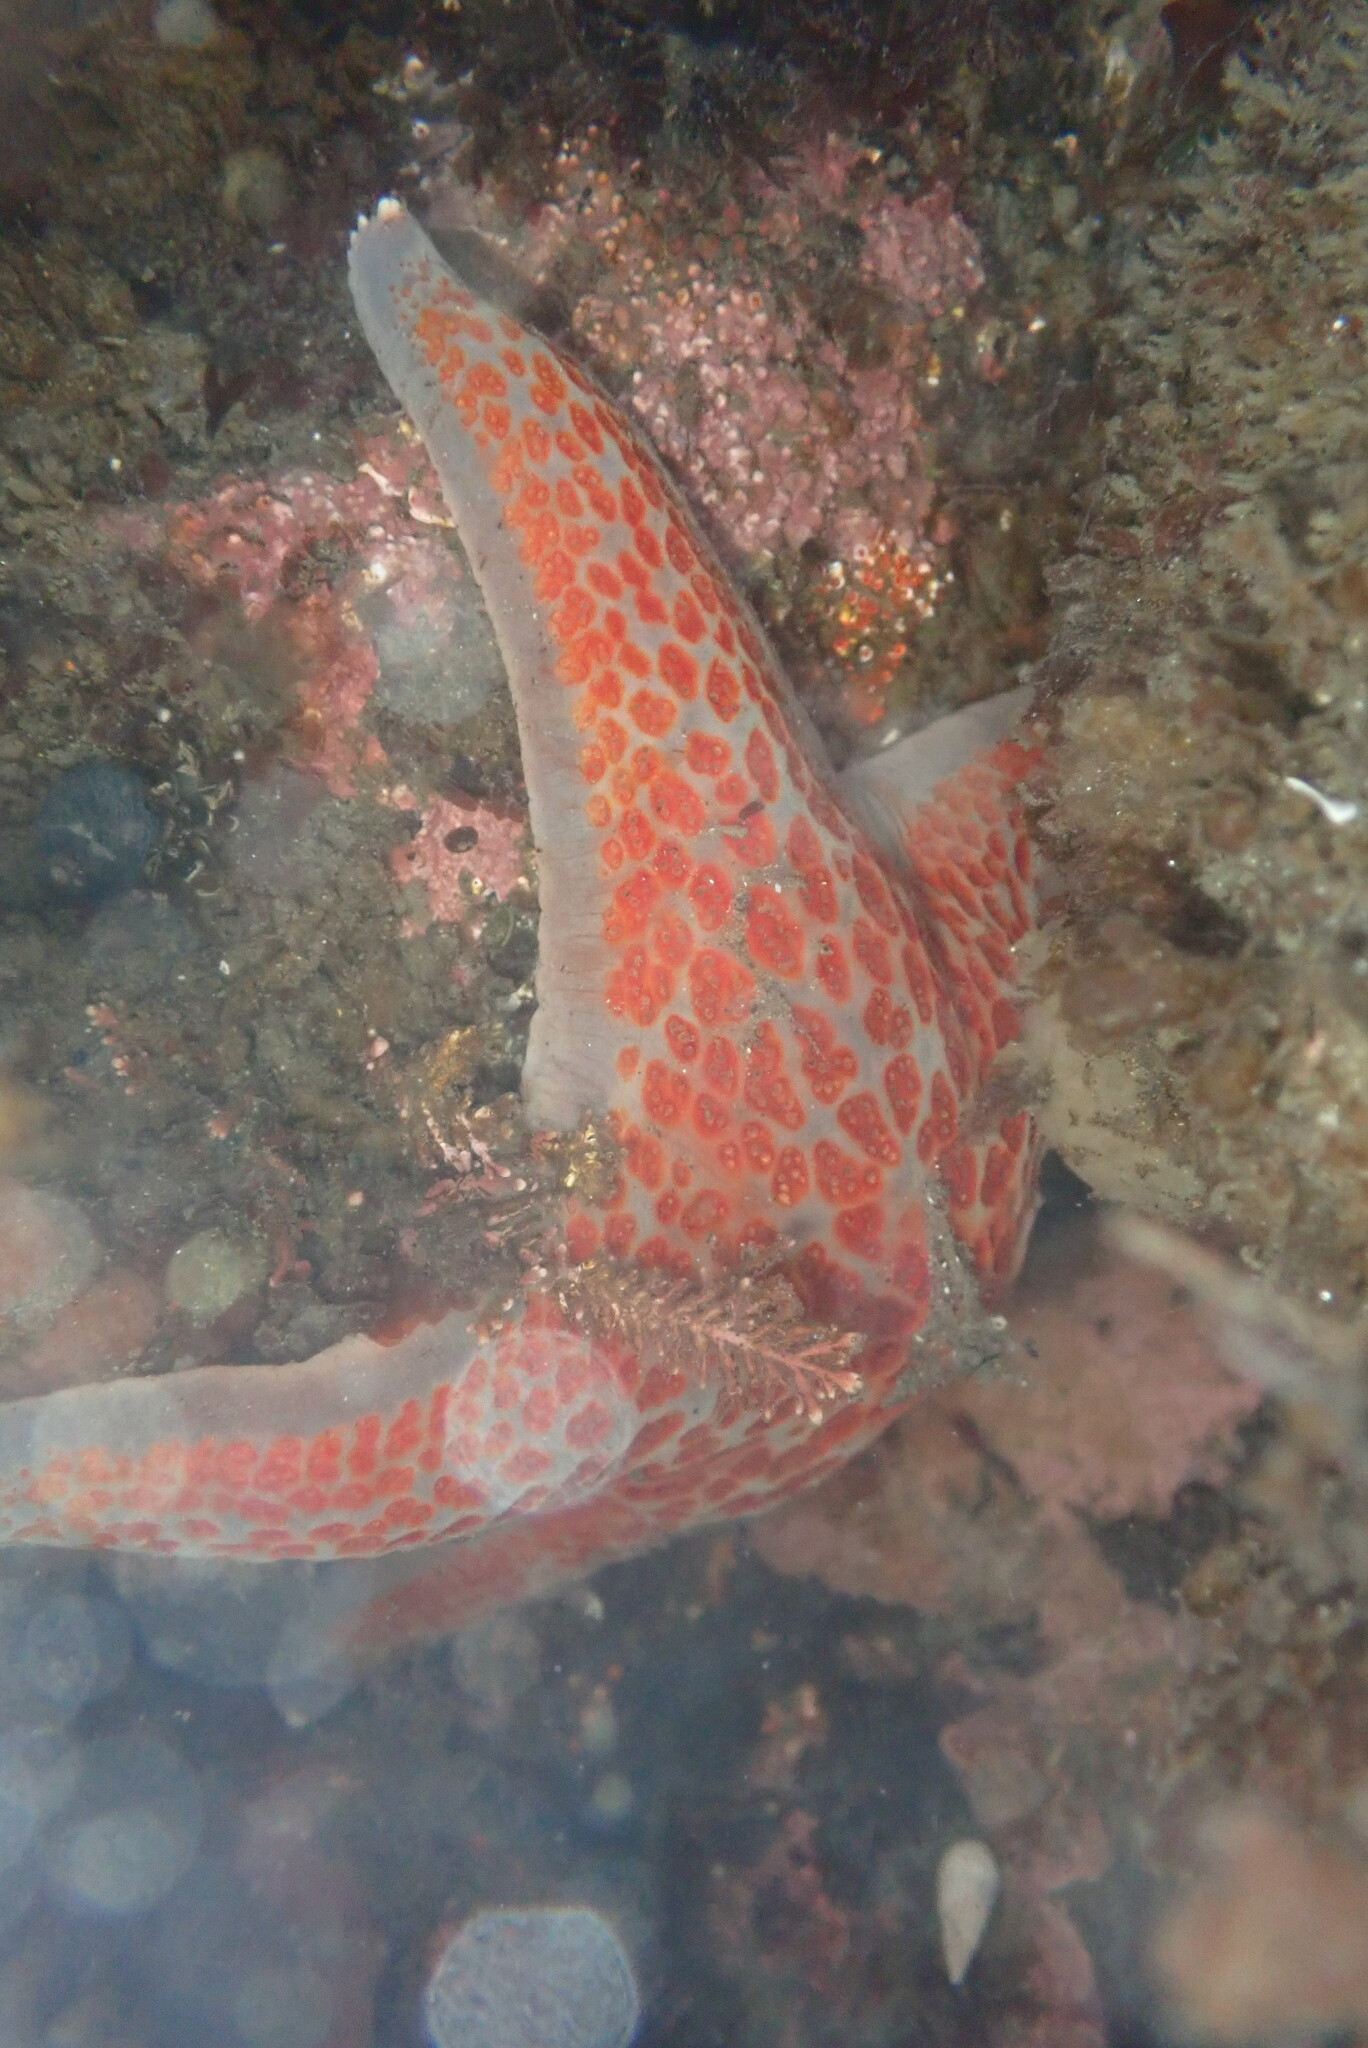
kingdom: Animalia
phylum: Echinodermata
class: Asteroidea
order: Valvatida
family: Asteropseidae
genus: Dermasterias
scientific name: Dermasterias imbricata
